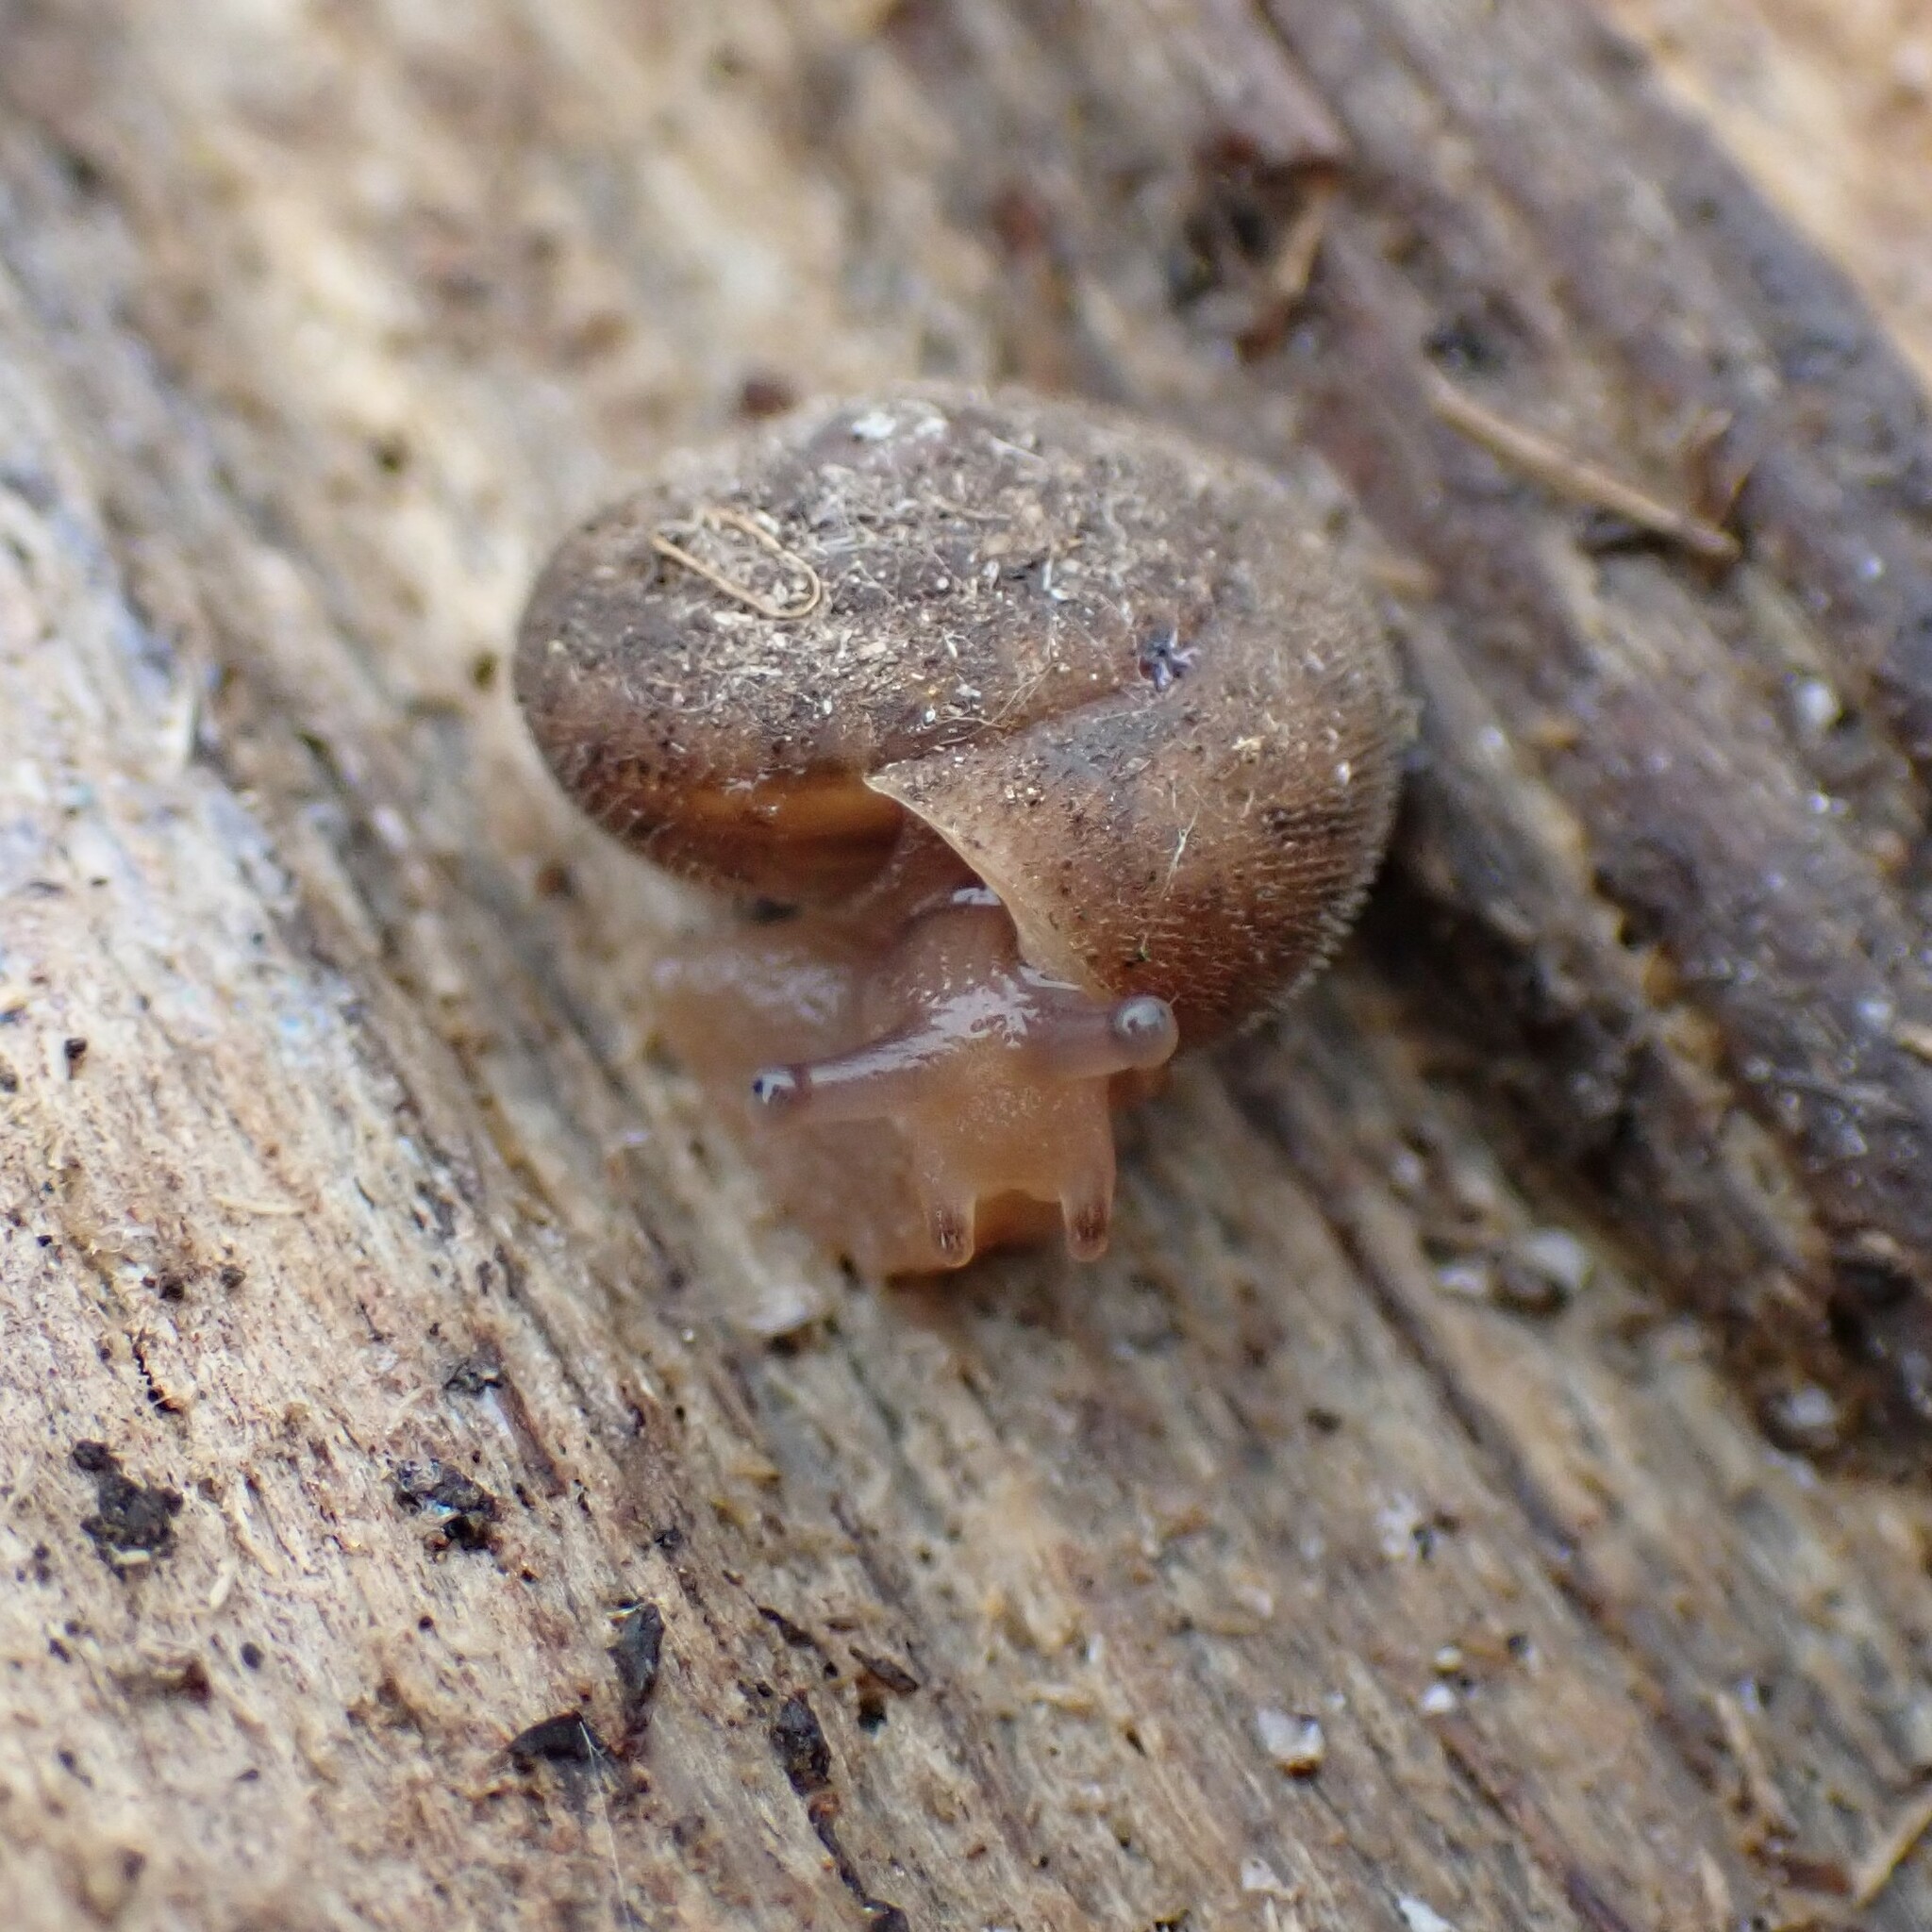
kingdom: Animalia
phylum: Mollusca
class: Gastropoda
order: Stylommatophora
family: Polygyridae
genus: Vespericola
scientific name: Vespericola columbianus
